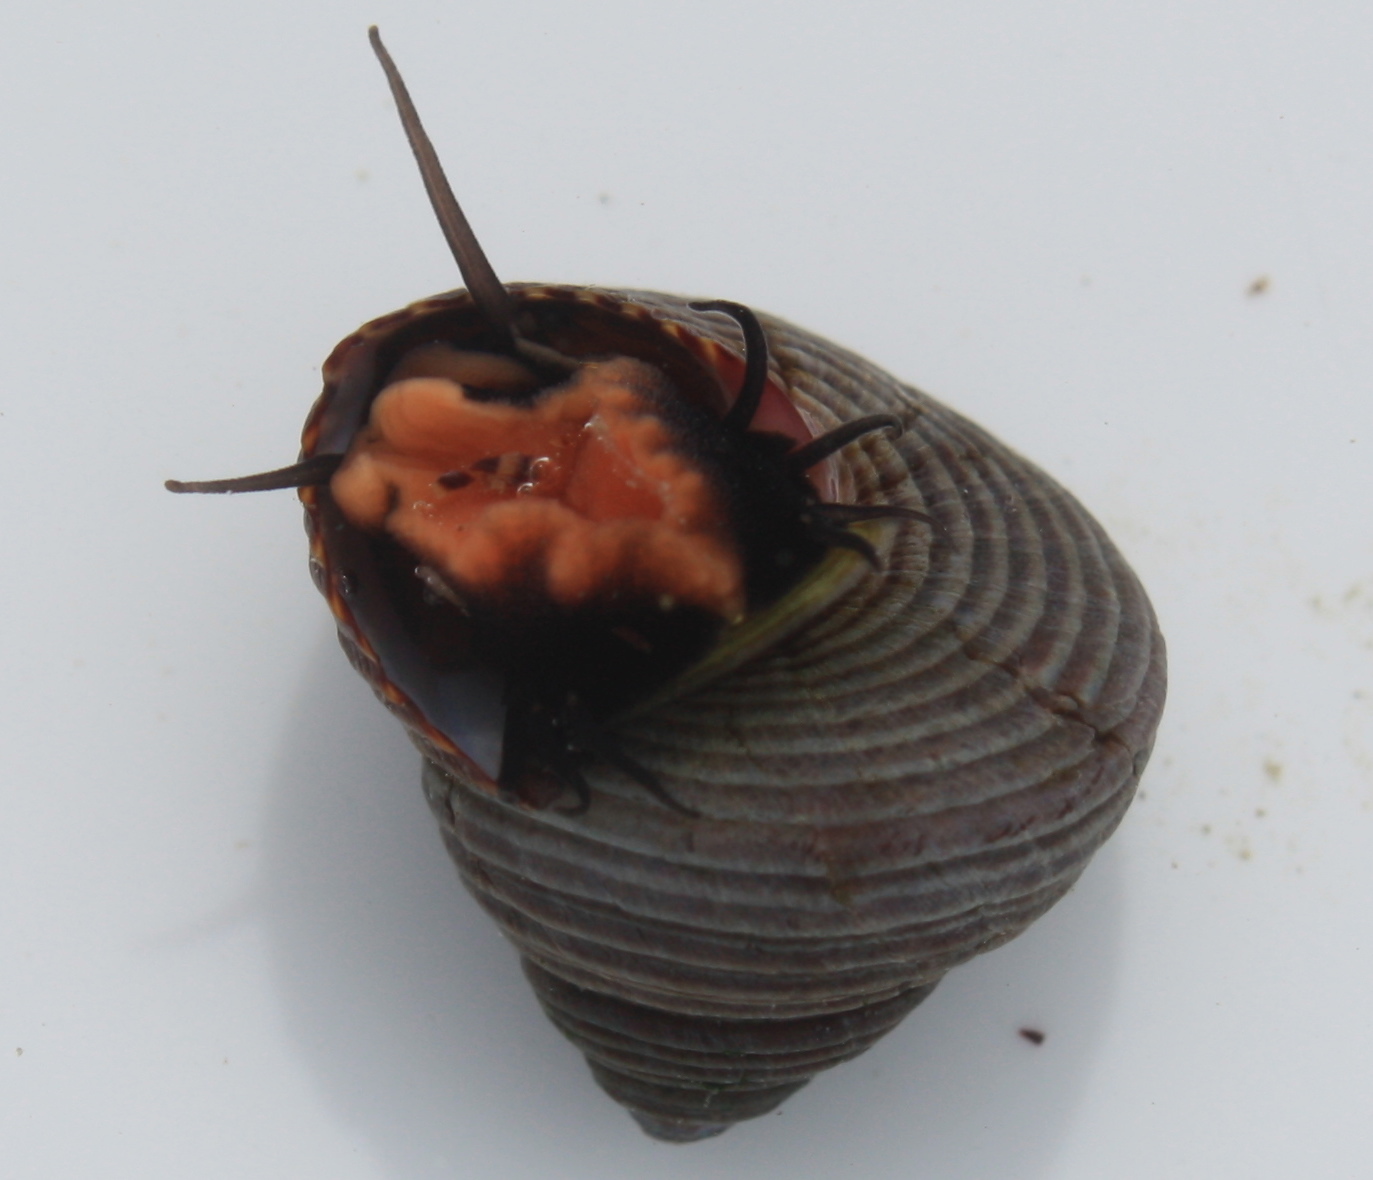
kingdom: Animalia
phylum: Mollusca
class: Gastropoda
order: Trochida
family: Calliostomatidae
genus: Calliostoma
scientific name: Calliostoma ligatum
